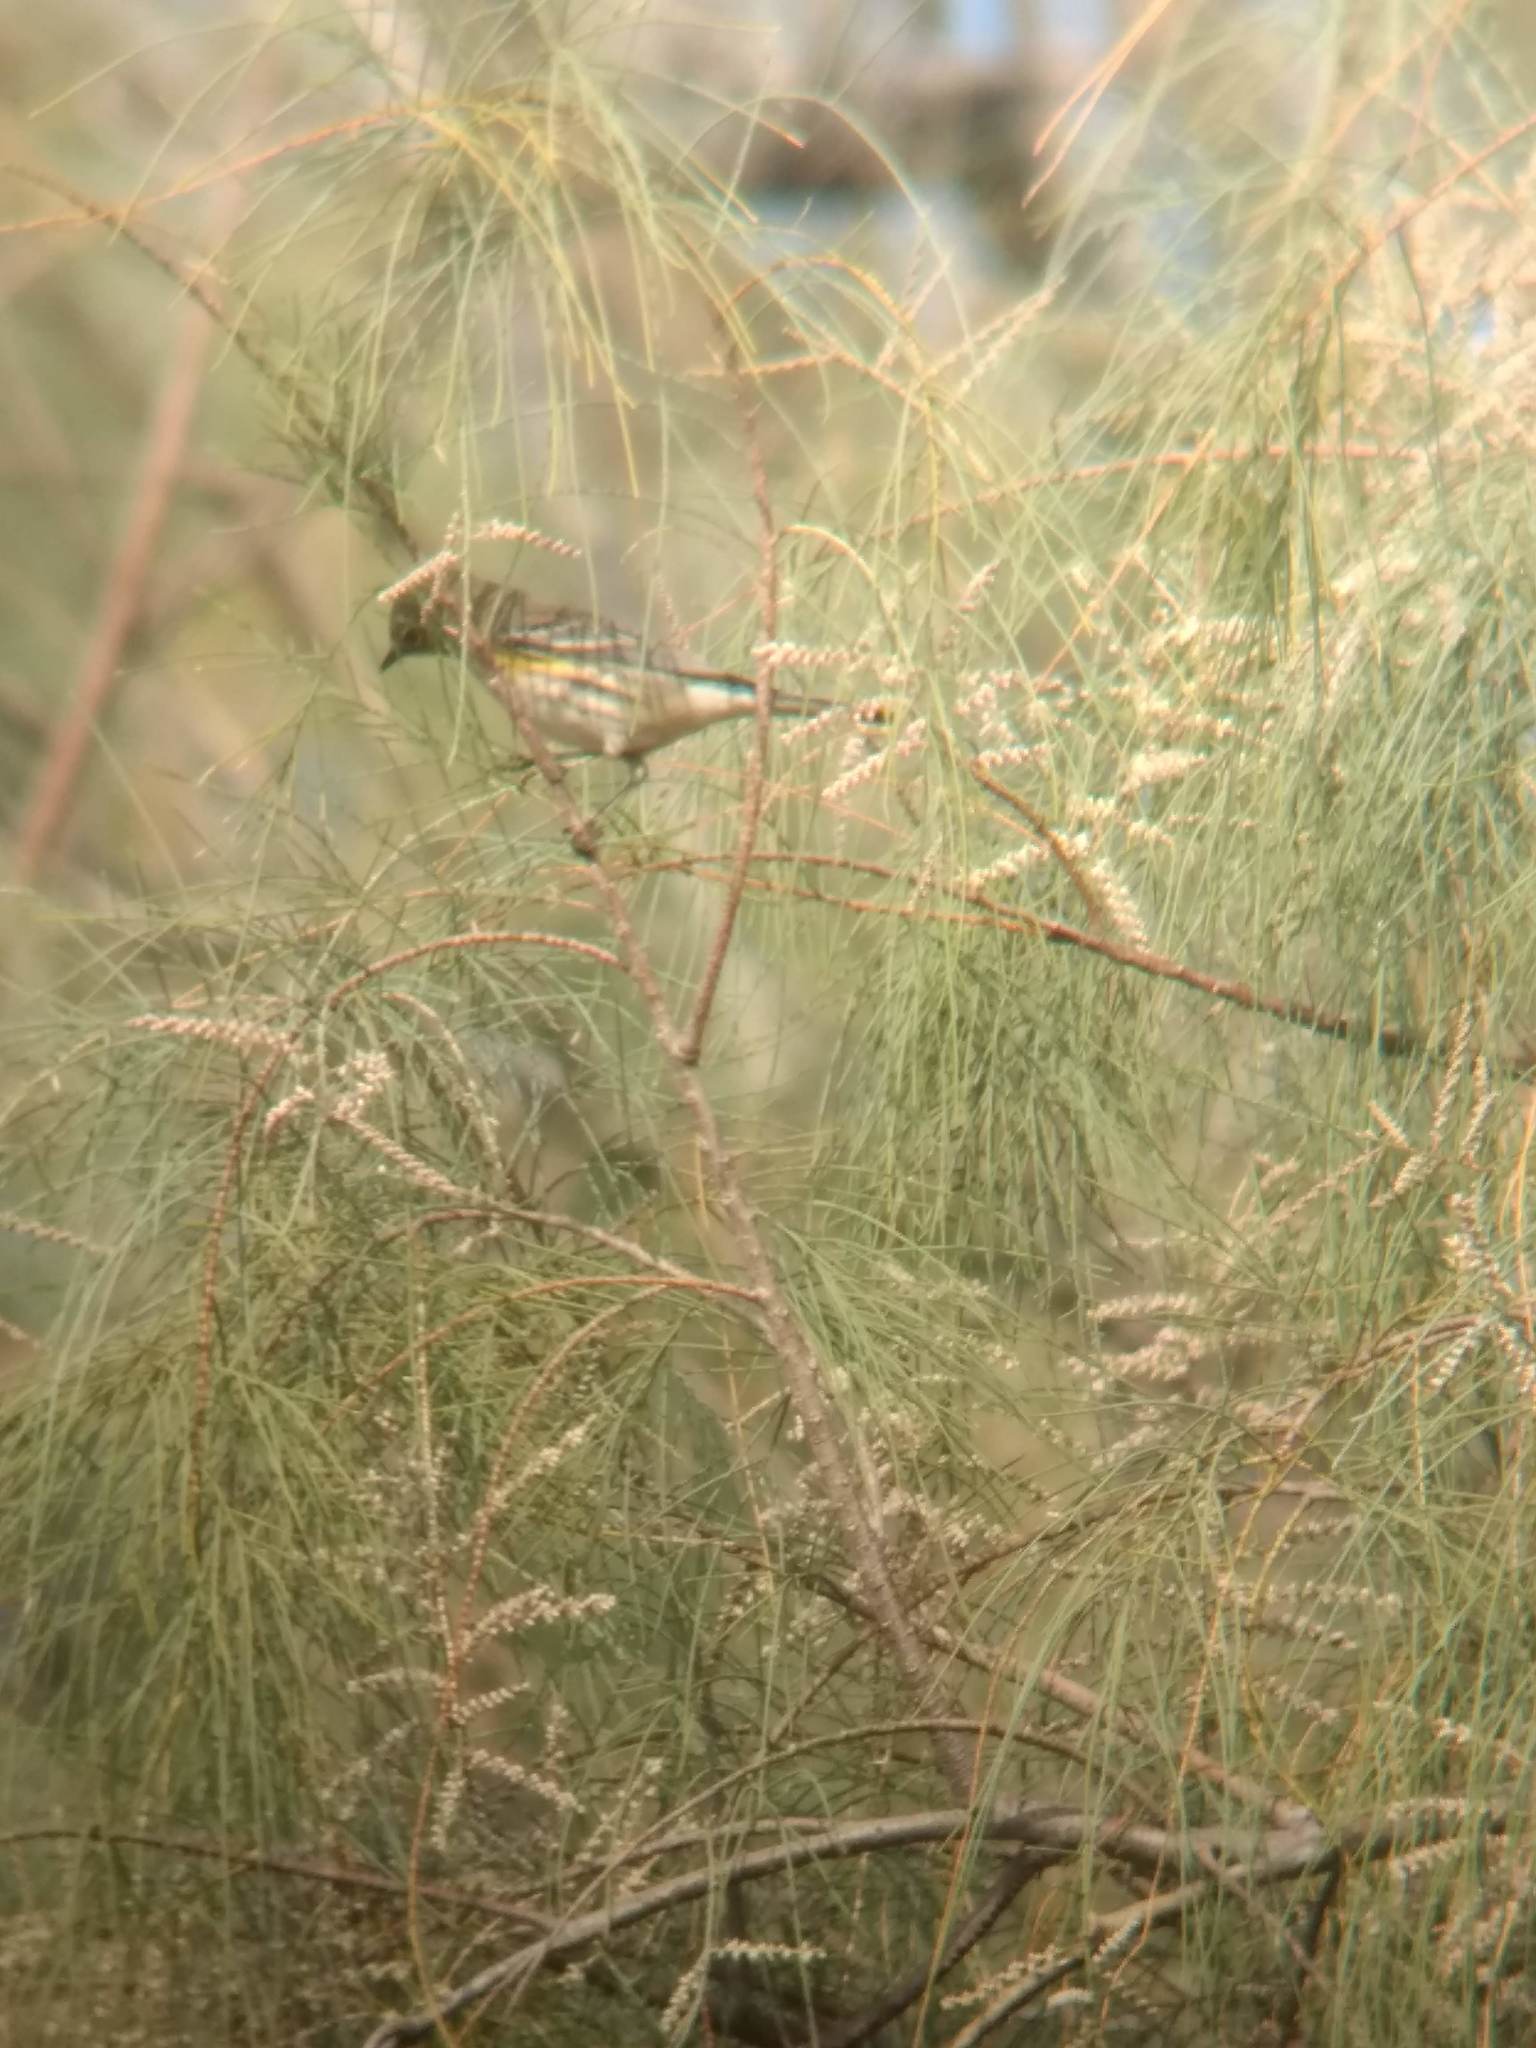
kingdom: Animalia
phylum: Chordata
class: Aves
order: Passeriformes
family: Parulidae
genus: Setophaga
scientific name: Setophaga coronata
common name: Myrtle warbler
